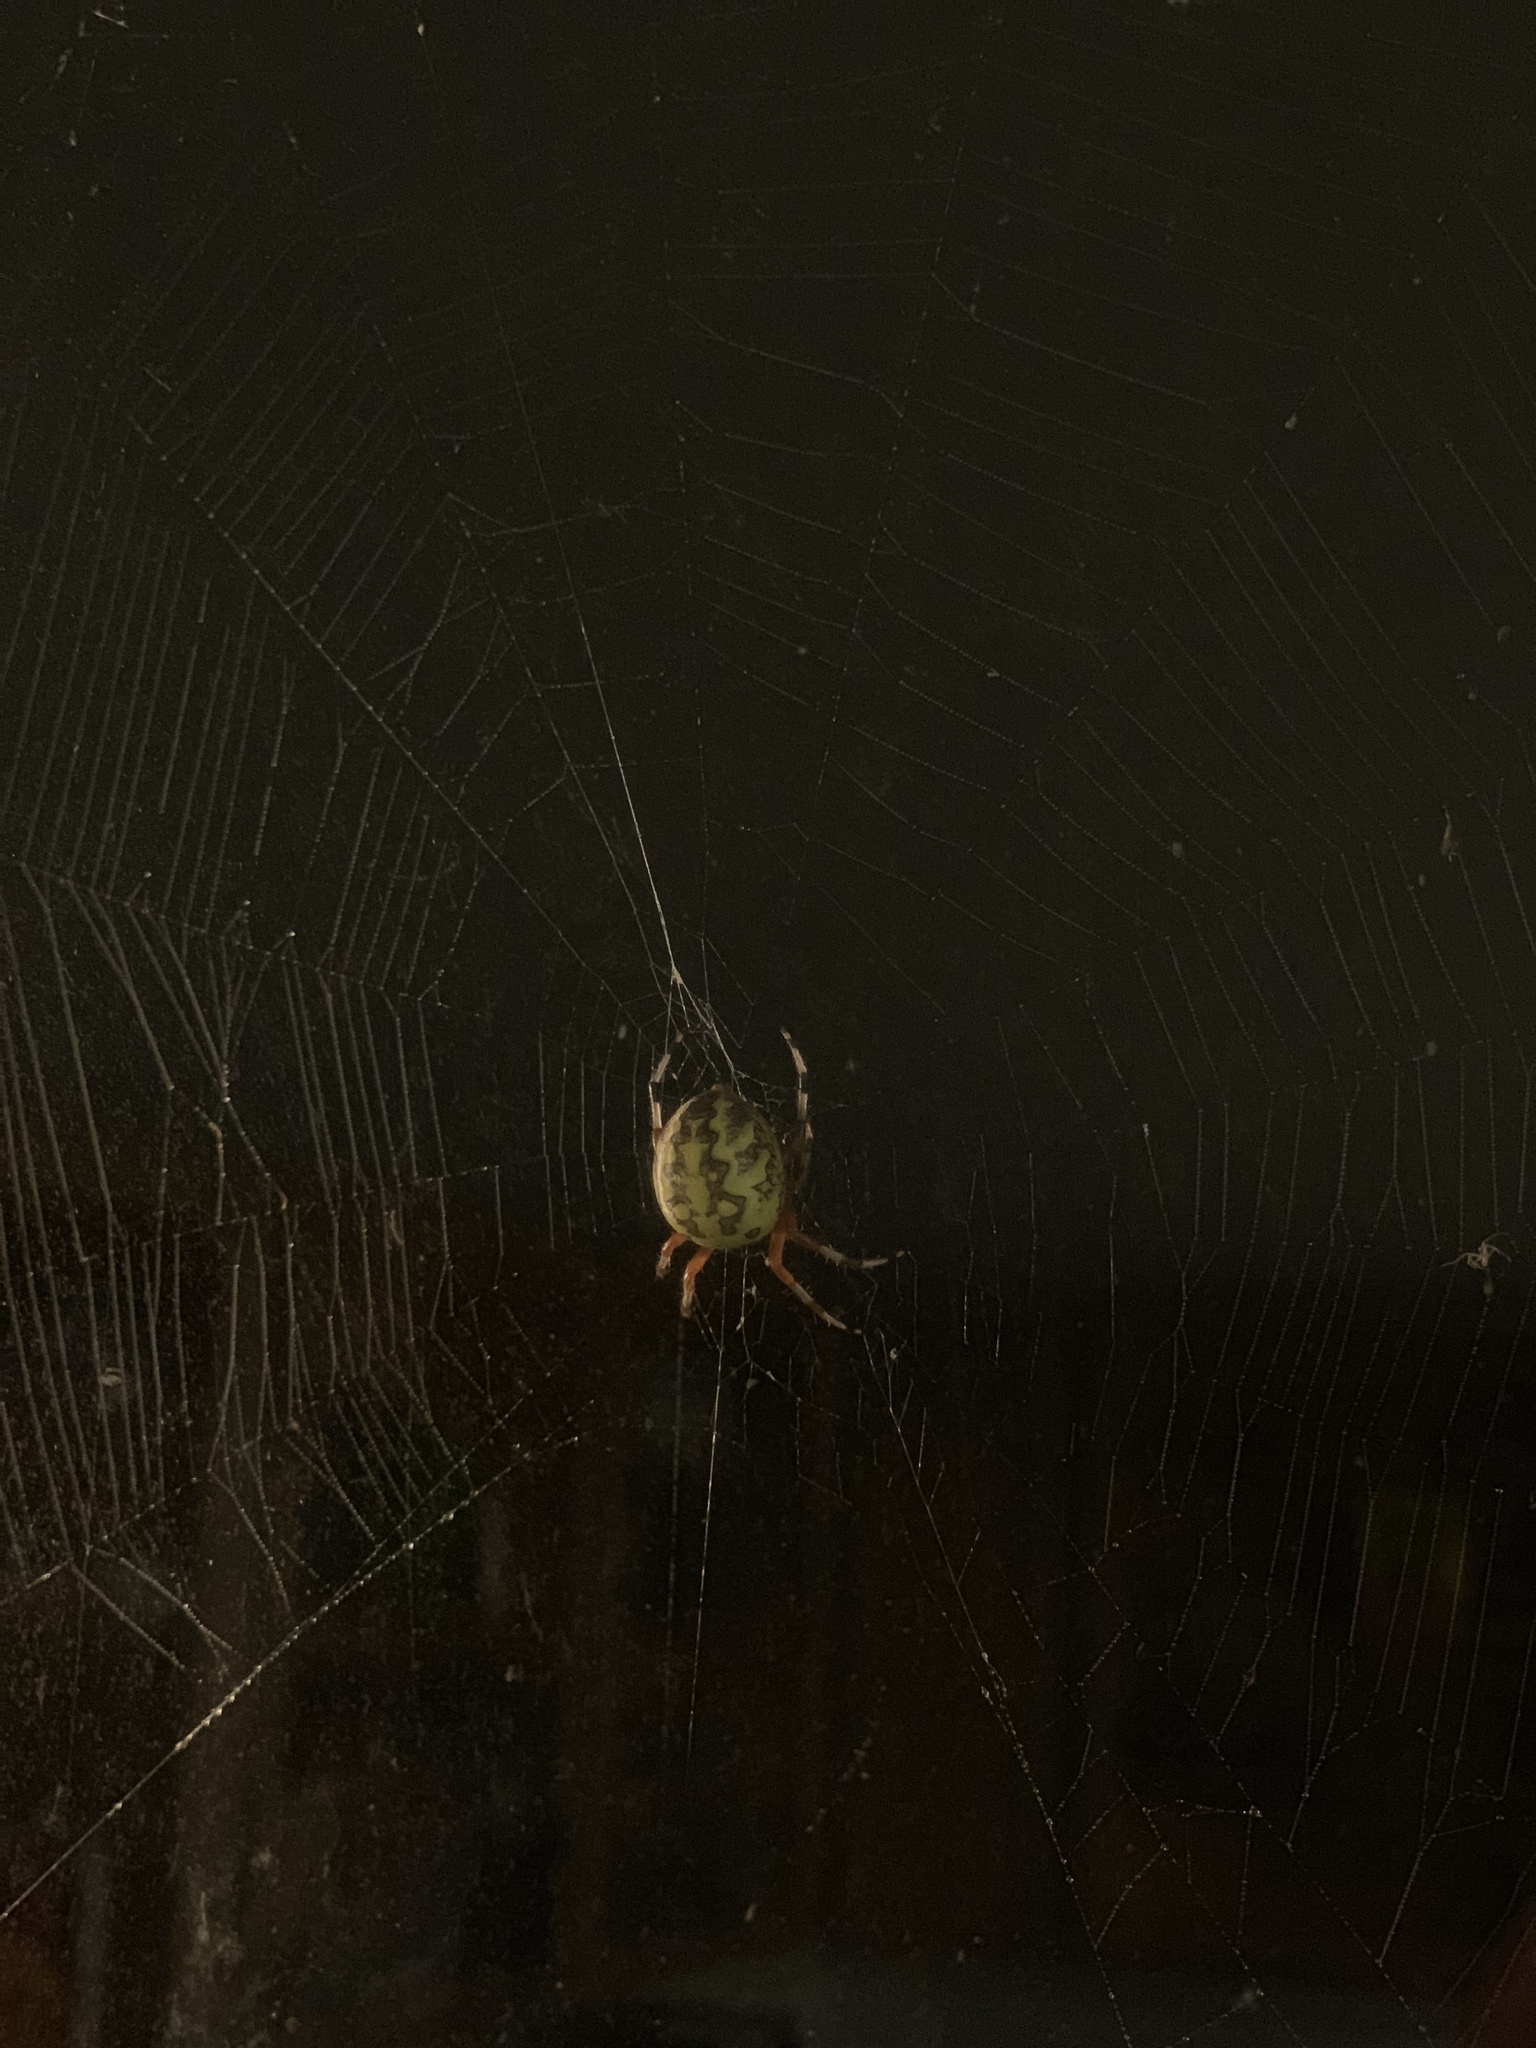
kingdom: Animalia
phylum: Arthropoda
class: Arachnida
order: Araneae
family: Araneidae
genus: Araneus
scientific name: Araneus marmoreus
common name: Marbled orbweaver
